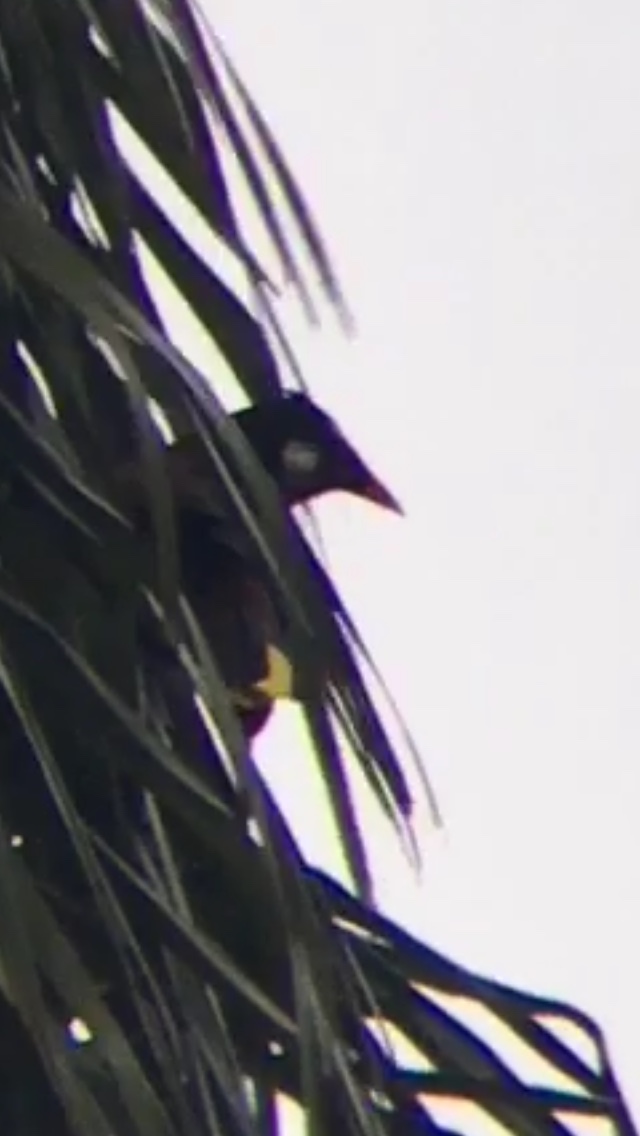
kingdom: Animalia
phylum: Chordata
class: Aves
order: Passeriformes
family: Icteridae
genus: Psarocolius
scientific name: Psarocolius montezuma
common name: Montezuma oropendola
